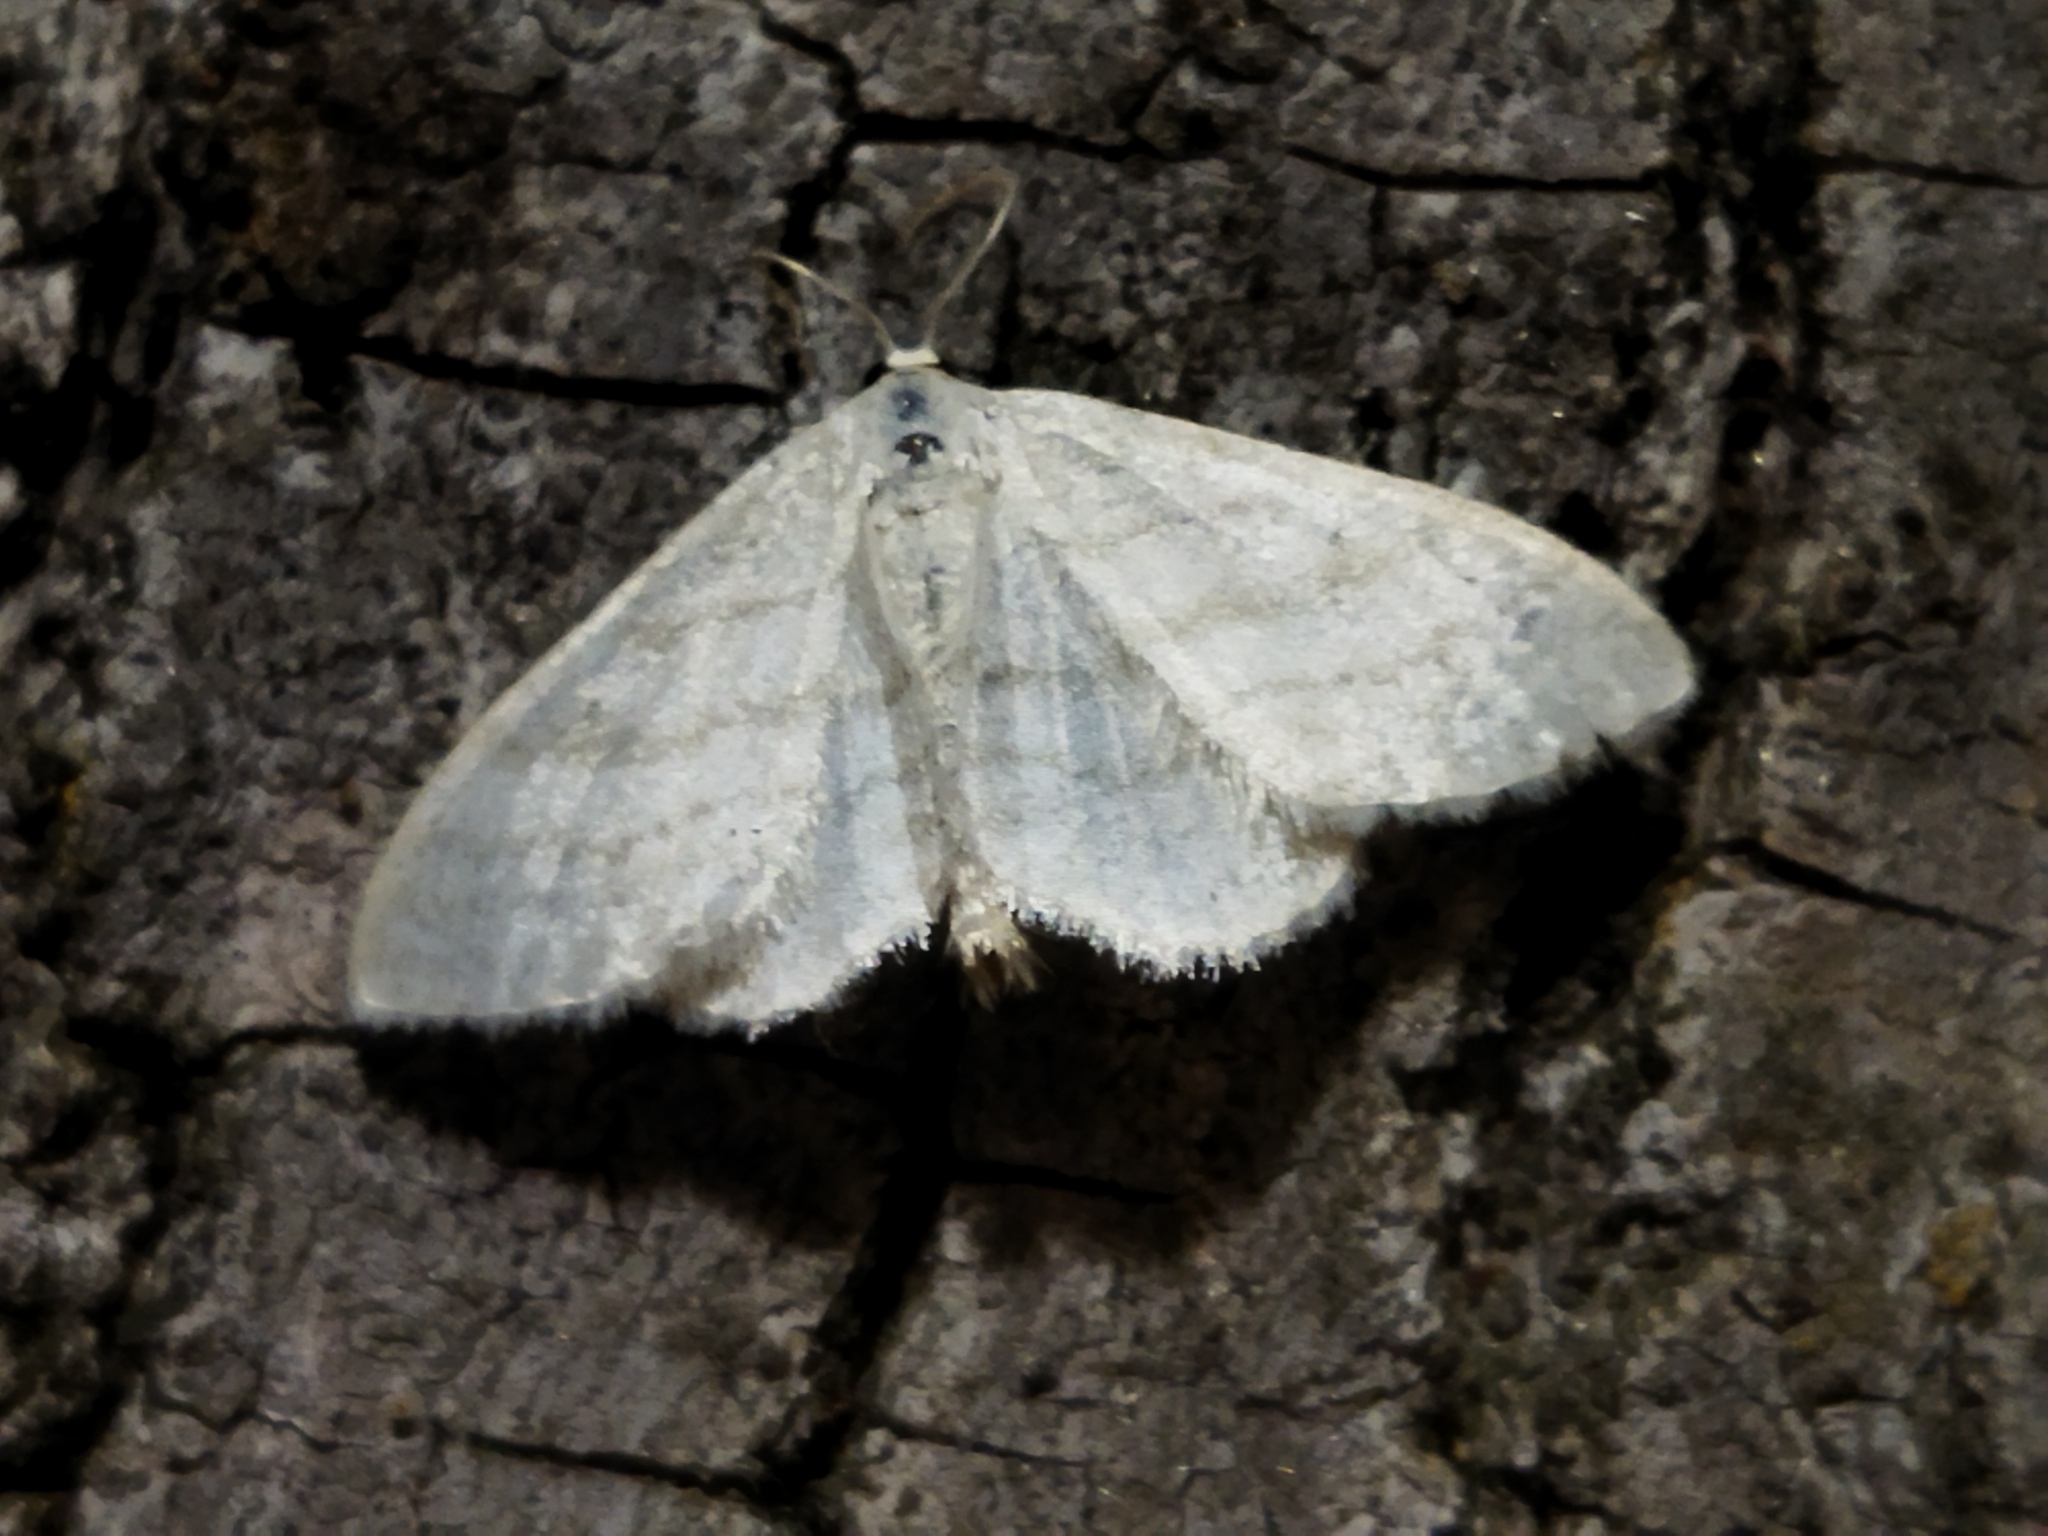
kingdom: Animalia
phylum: Arthropoda
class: Insecta
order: Lepidoptera
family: Geometridae
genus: Idaea
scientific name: Idaea subsericeata
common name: Satin wave
